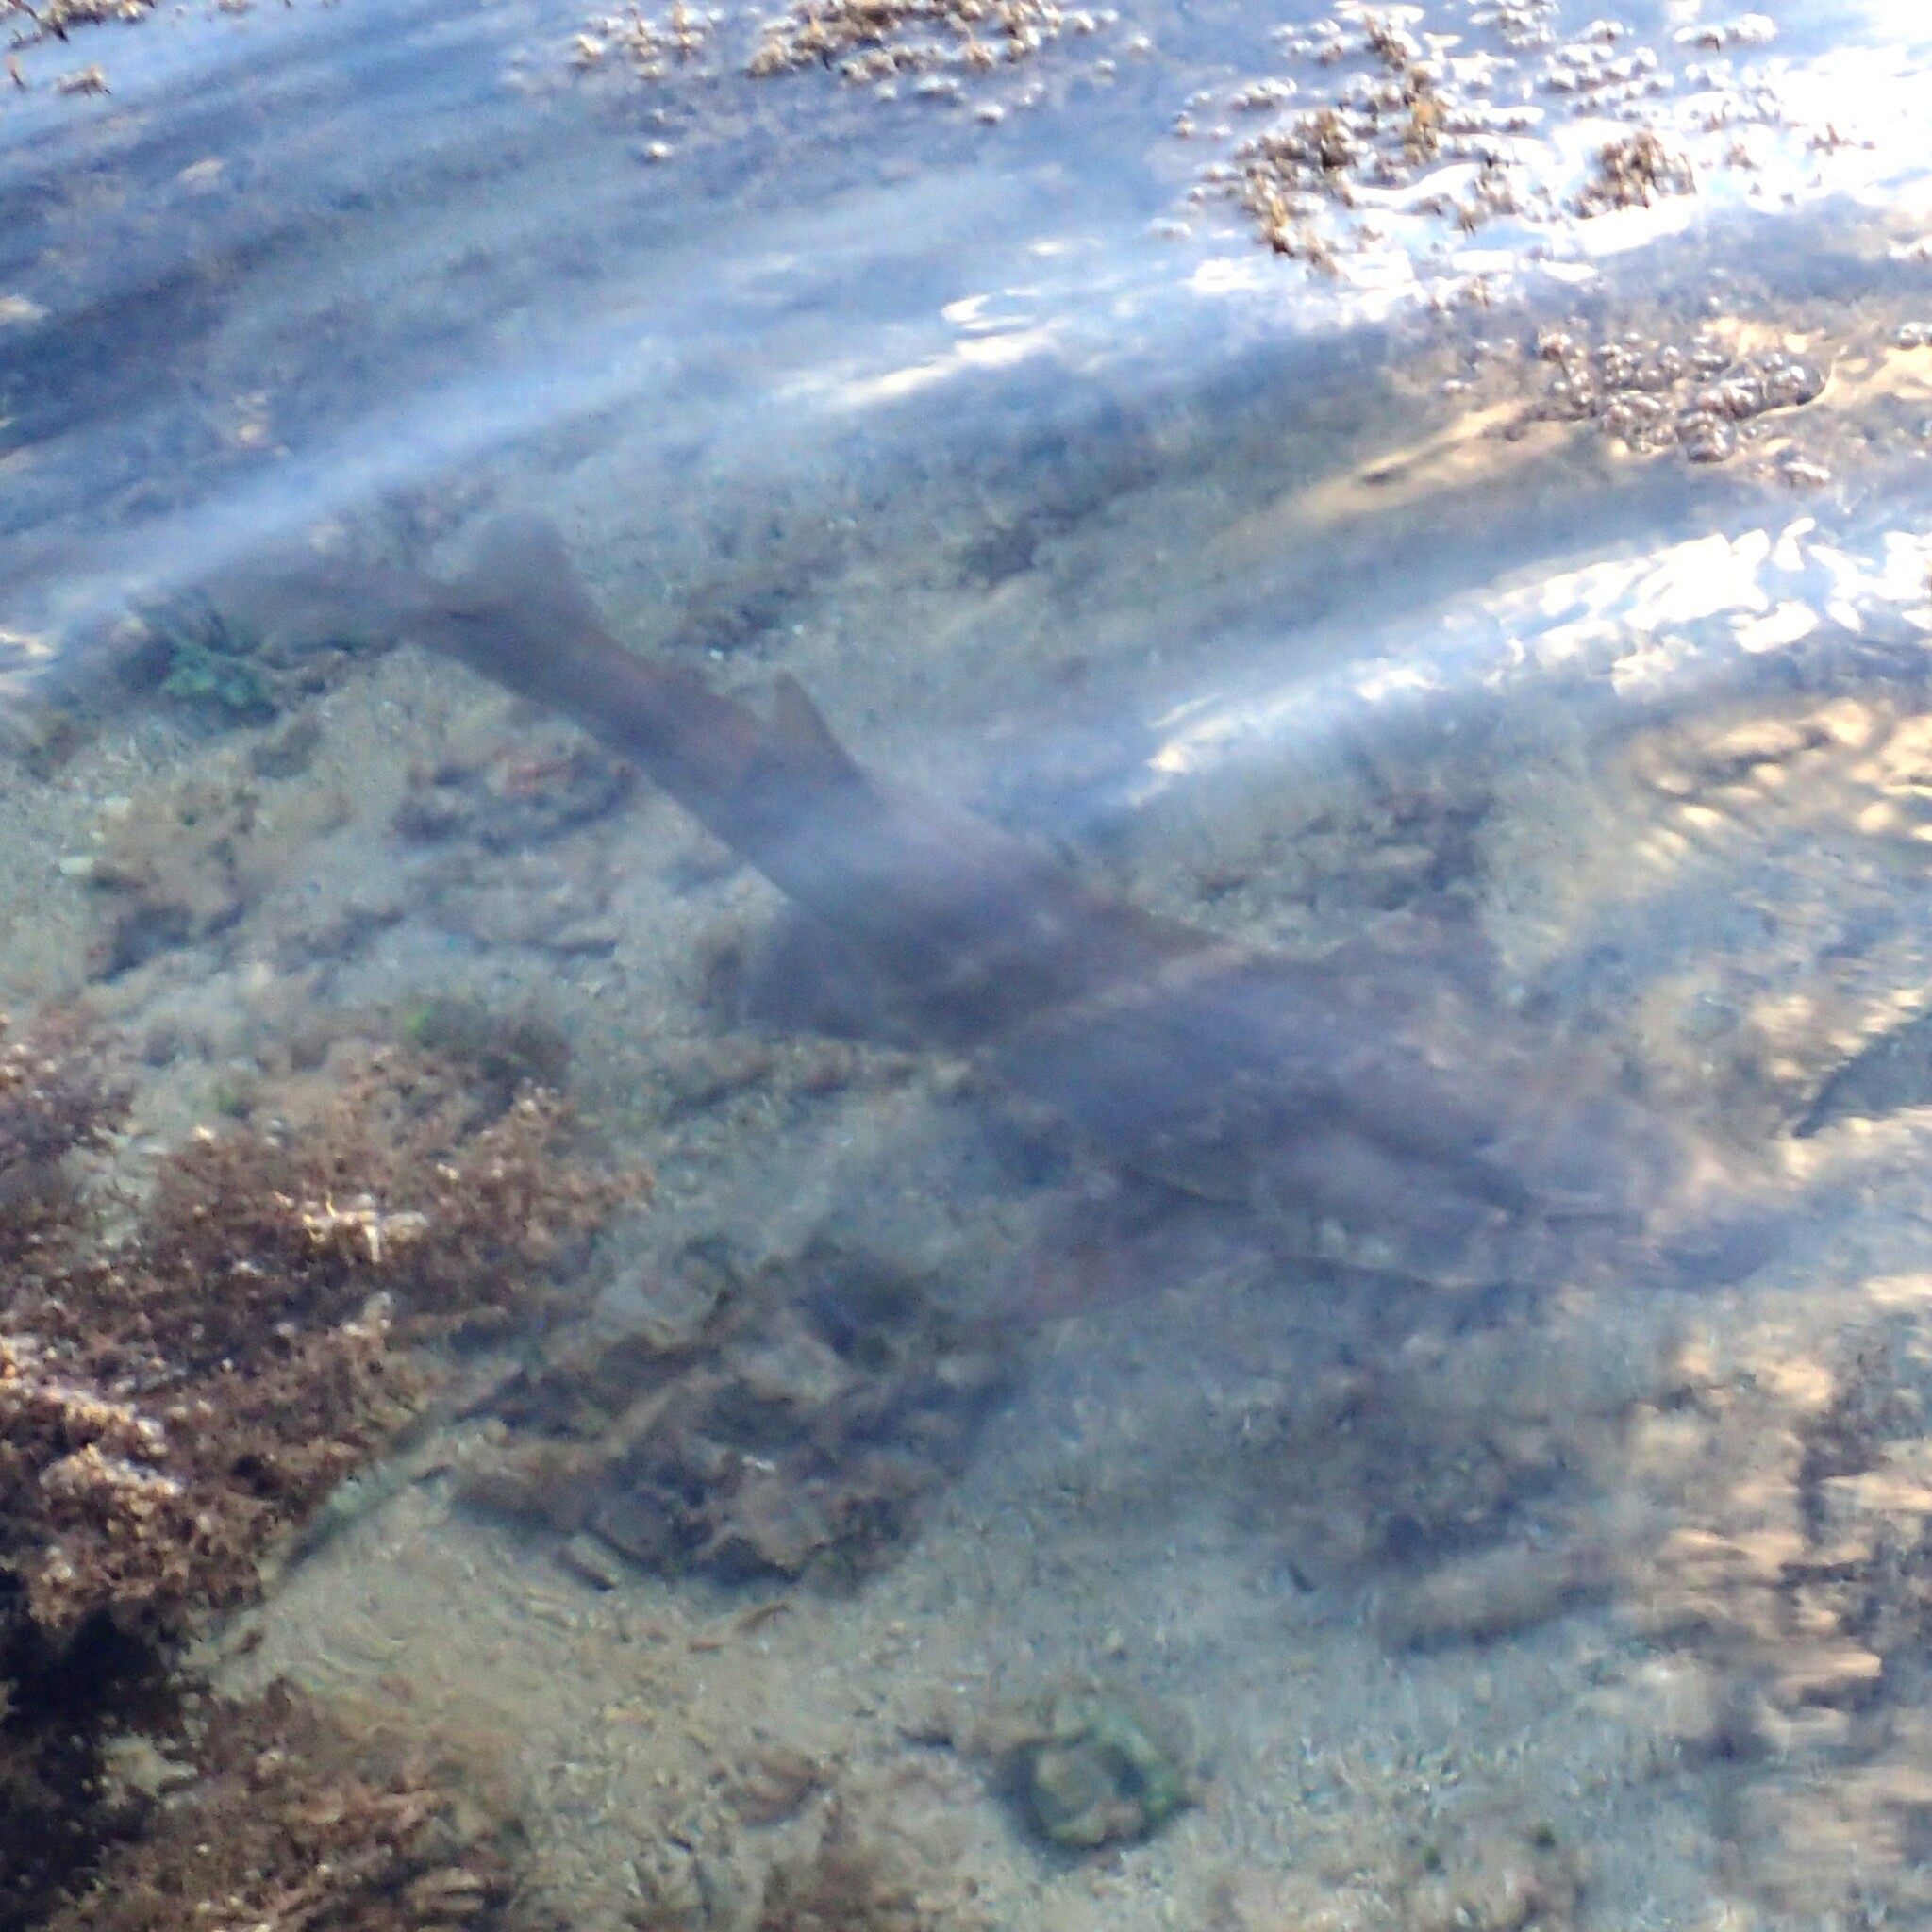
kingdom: Animalia
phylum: Chordata
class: Elasmobranchii
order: Orectolobiformes
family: Hemiscylliidae
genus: Chiloscyllium
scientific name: Chiloscyllium punctatum
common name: Brown-banded catshark
